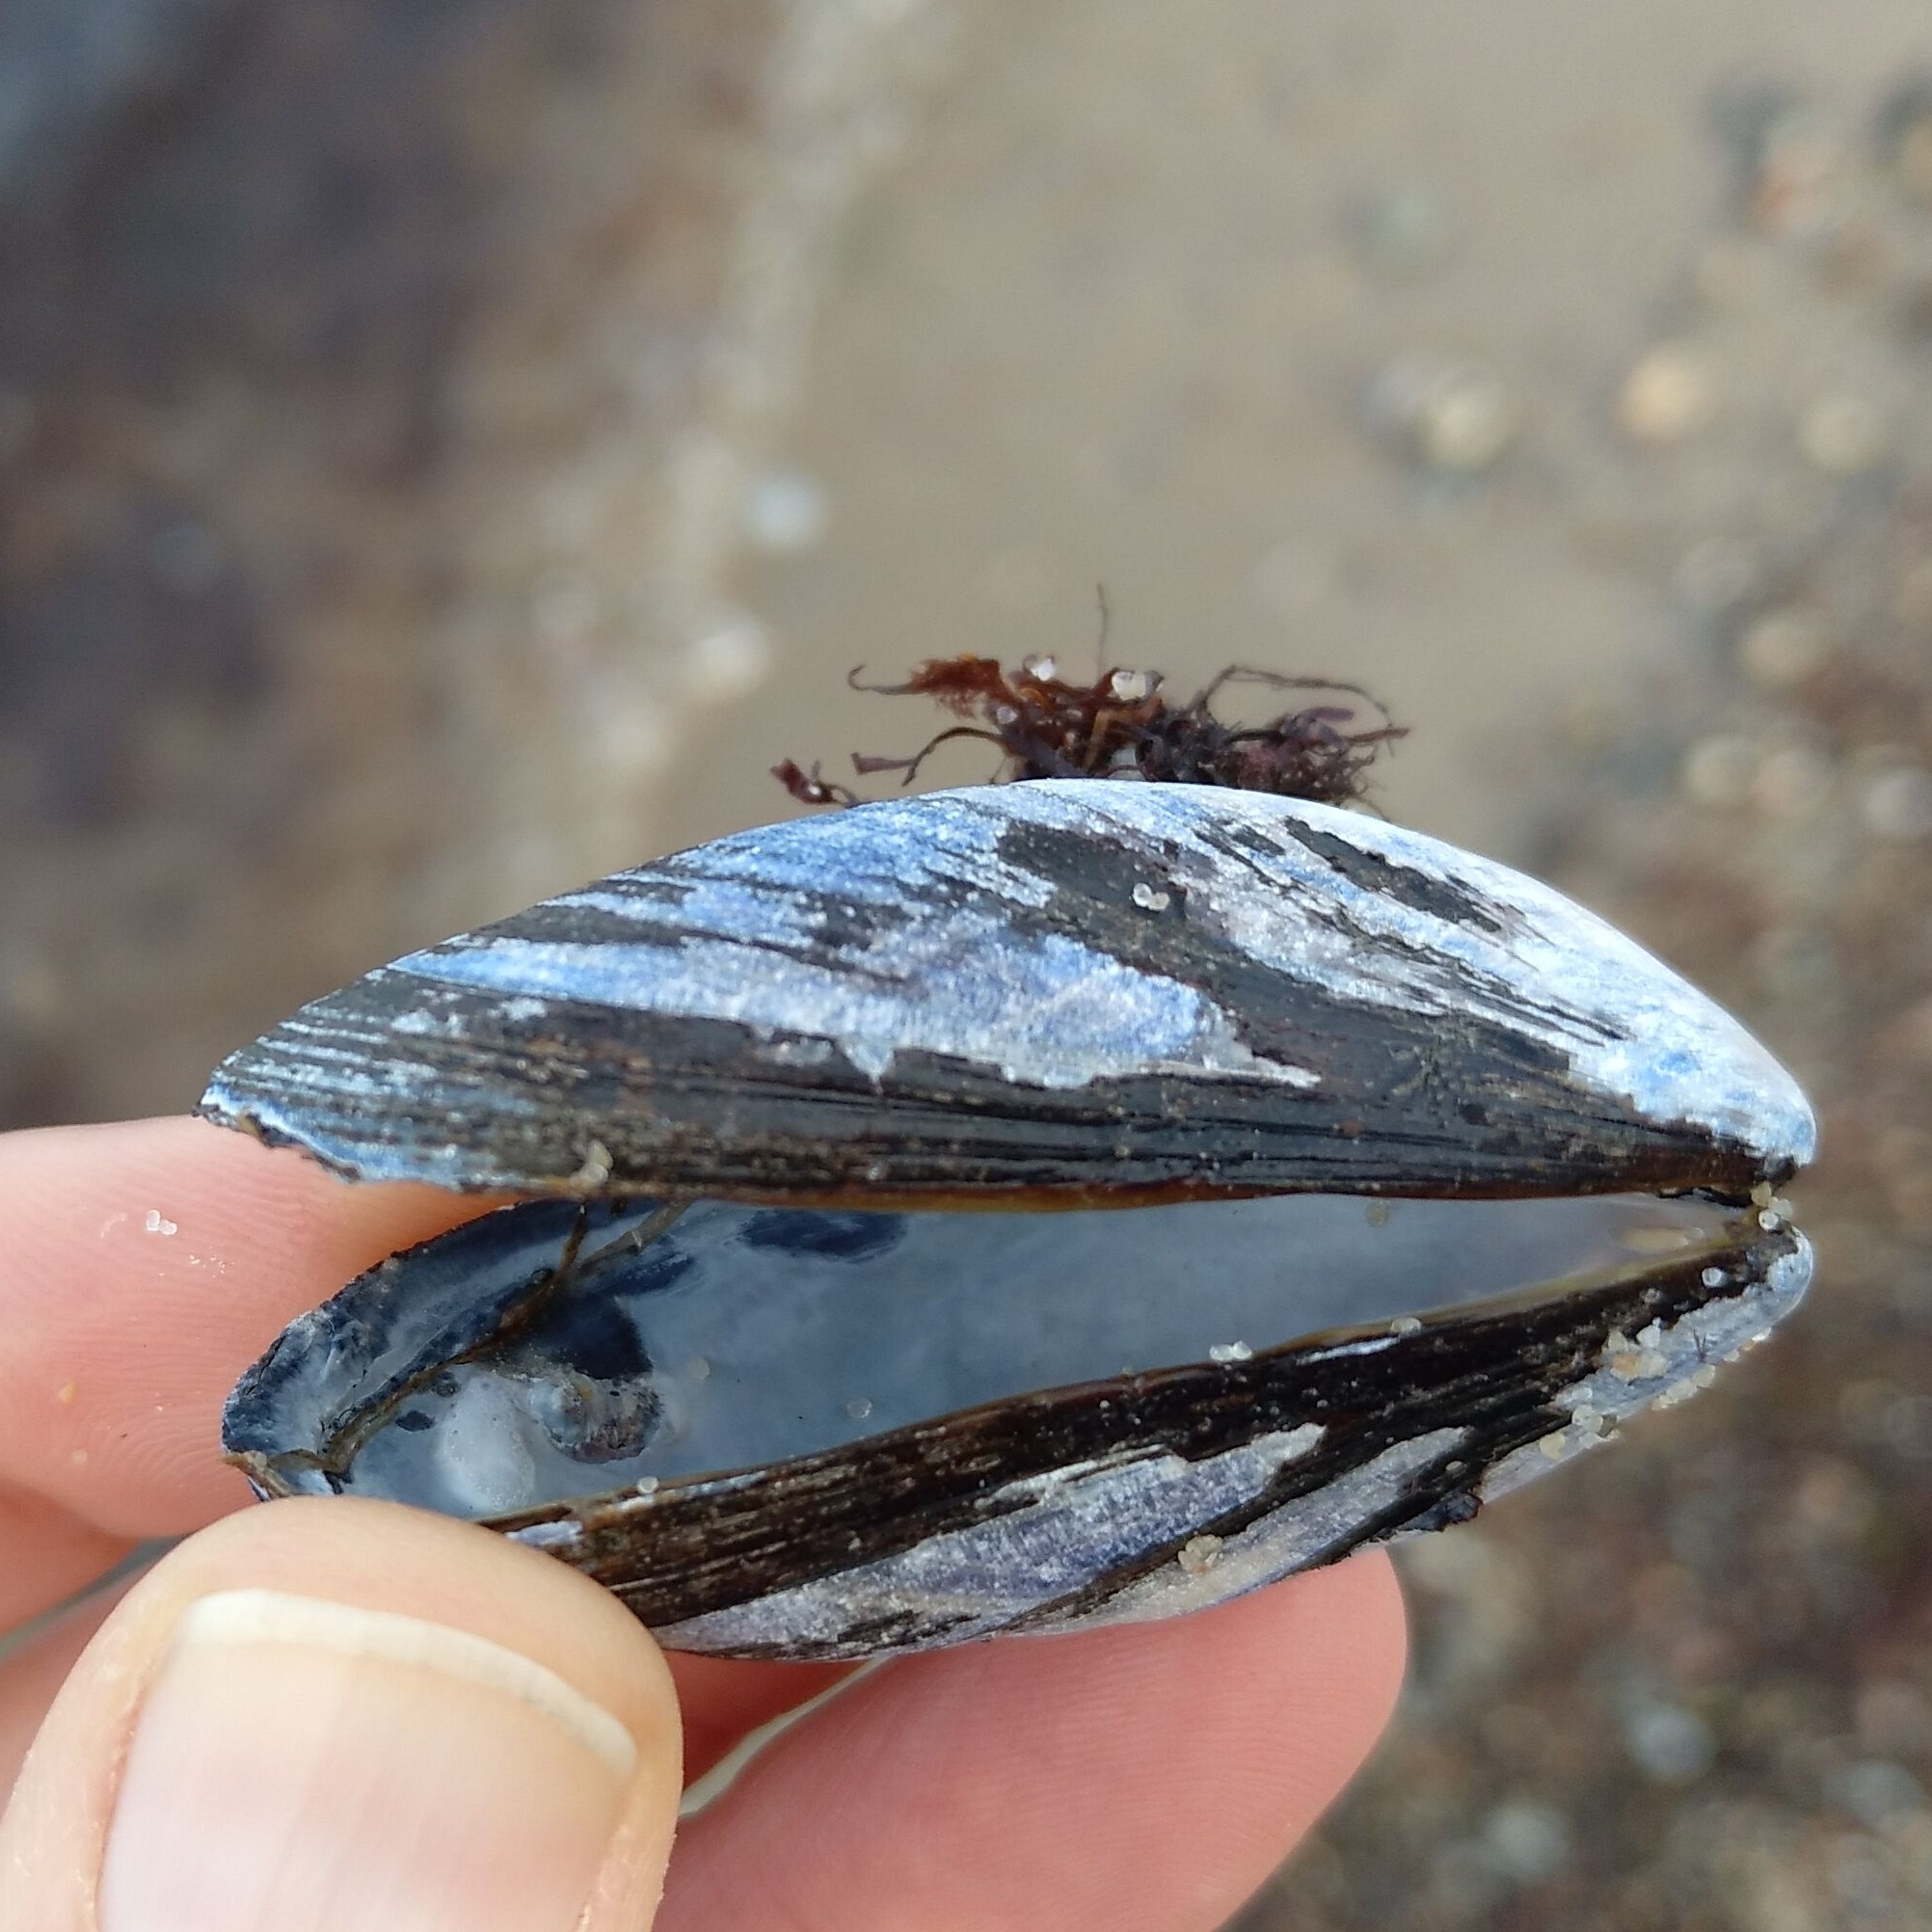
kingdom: Animalia
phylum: Mollusca
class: Bivalvia
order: Mytilida
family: Mytilidae
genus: Mytilus
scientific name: Mytilus edulis
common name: Blue mussel
